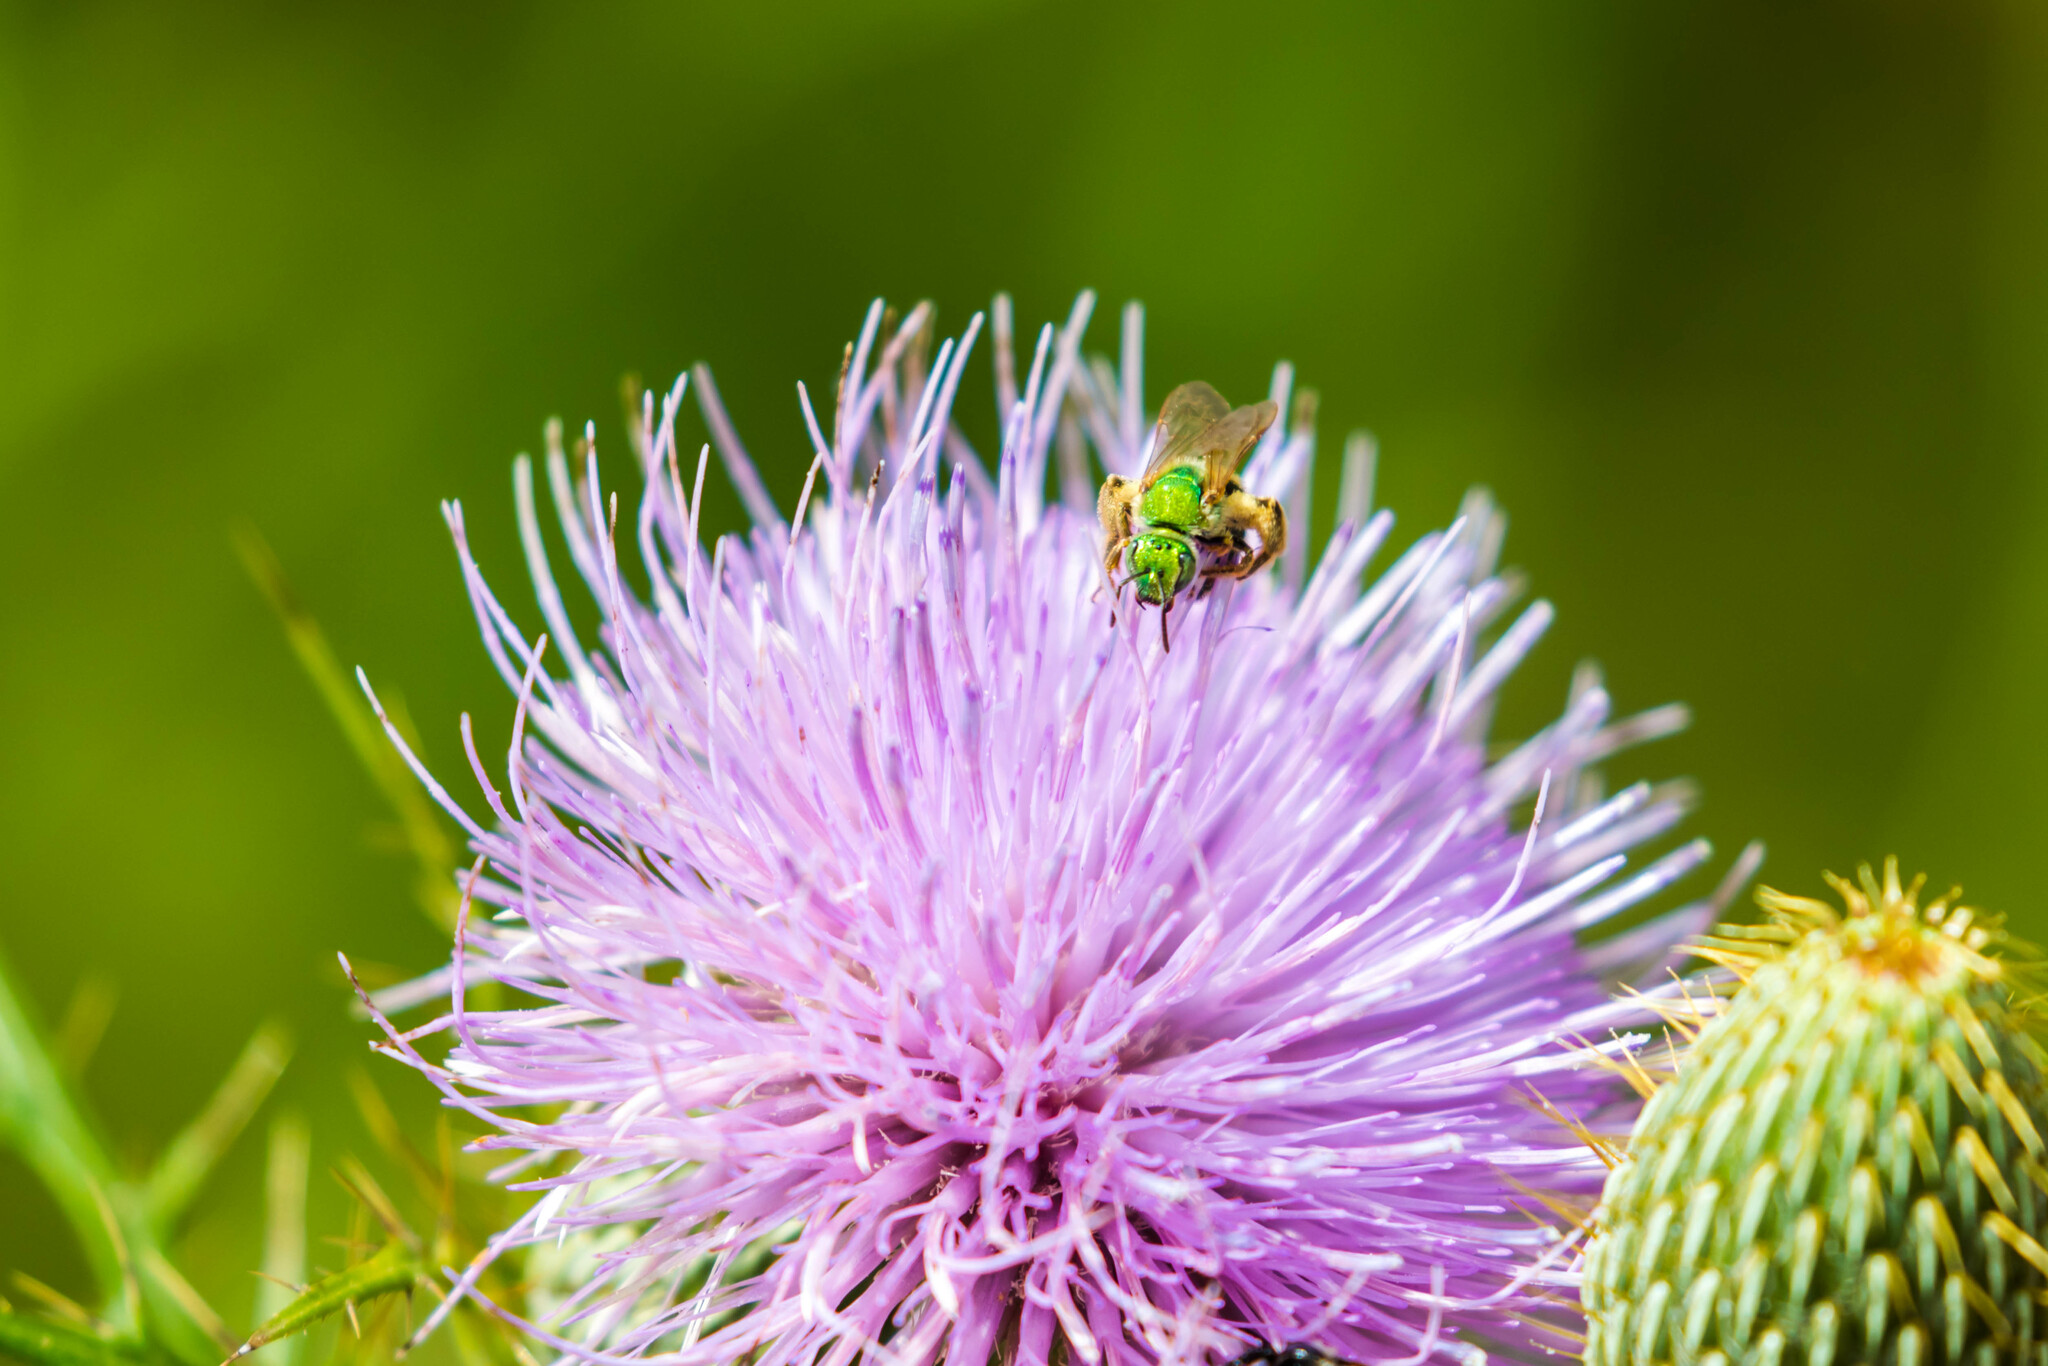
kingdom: Animalia
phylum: Arthropoda
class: Insecta
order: Hymenoptera
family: Halictidae
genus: Agapostemon
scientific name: Agapostemon virescens
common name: Bicolored striped sweat bee
